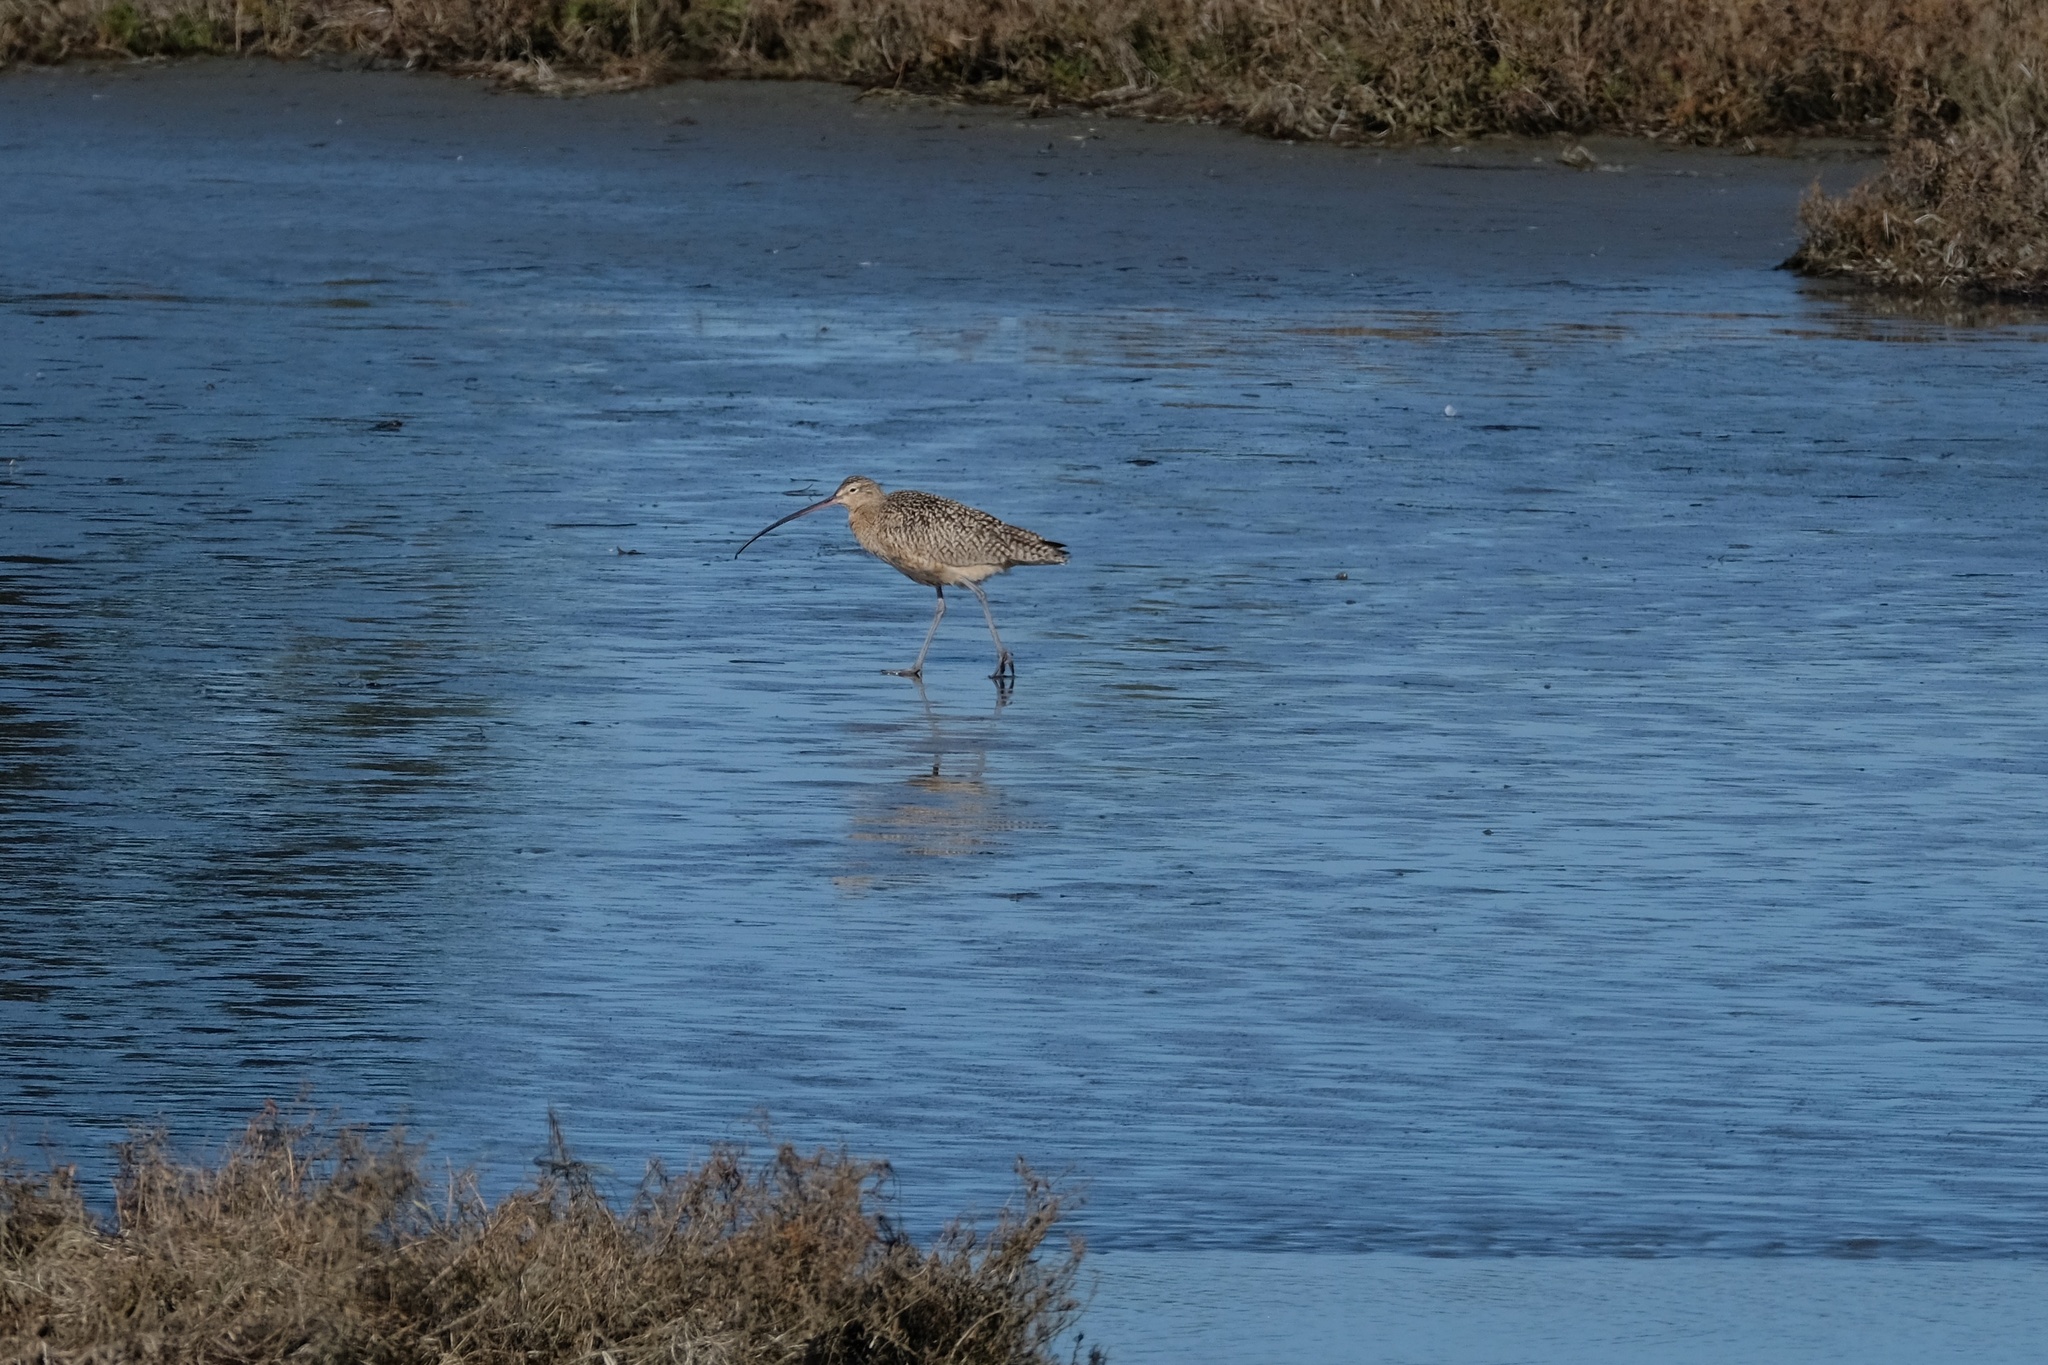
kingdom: Animalia
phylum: Chordata
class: Aves
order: Charadriiformes
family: Scolopacidae
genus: Numenius
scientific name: Numenius americanus
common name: Long-billed curlew
